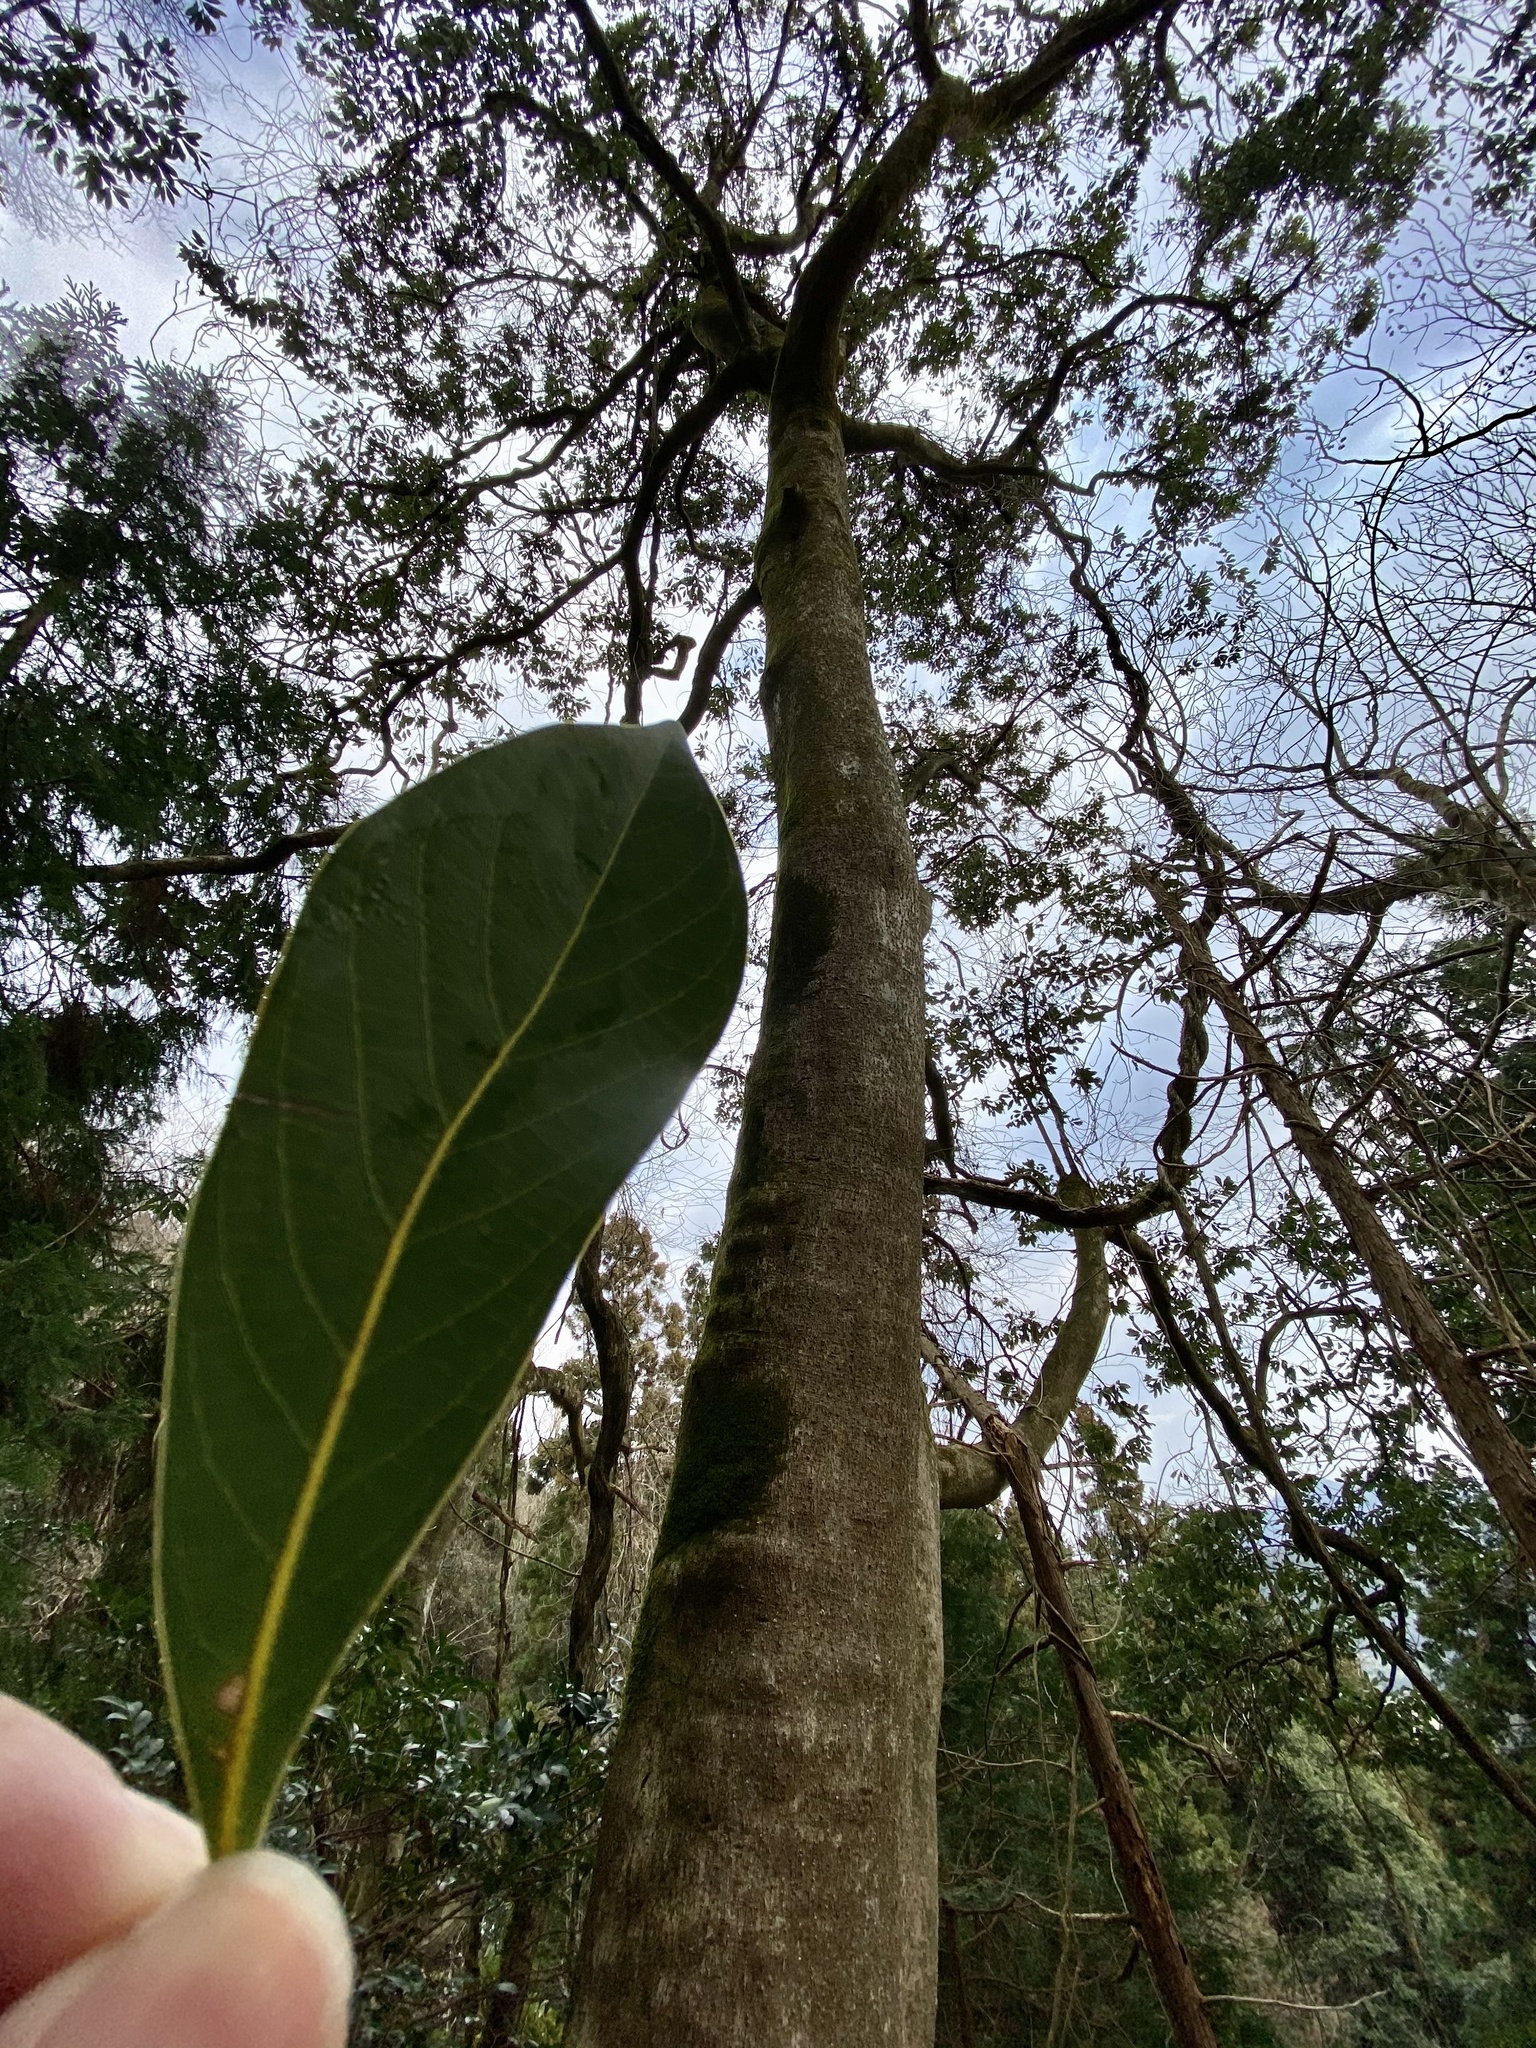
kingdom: Plantae
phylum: Tracheophyta
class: Magnoliopsida
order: Laurales
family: Lauraceae
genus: Machilus
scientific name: Machilus thunbergii
